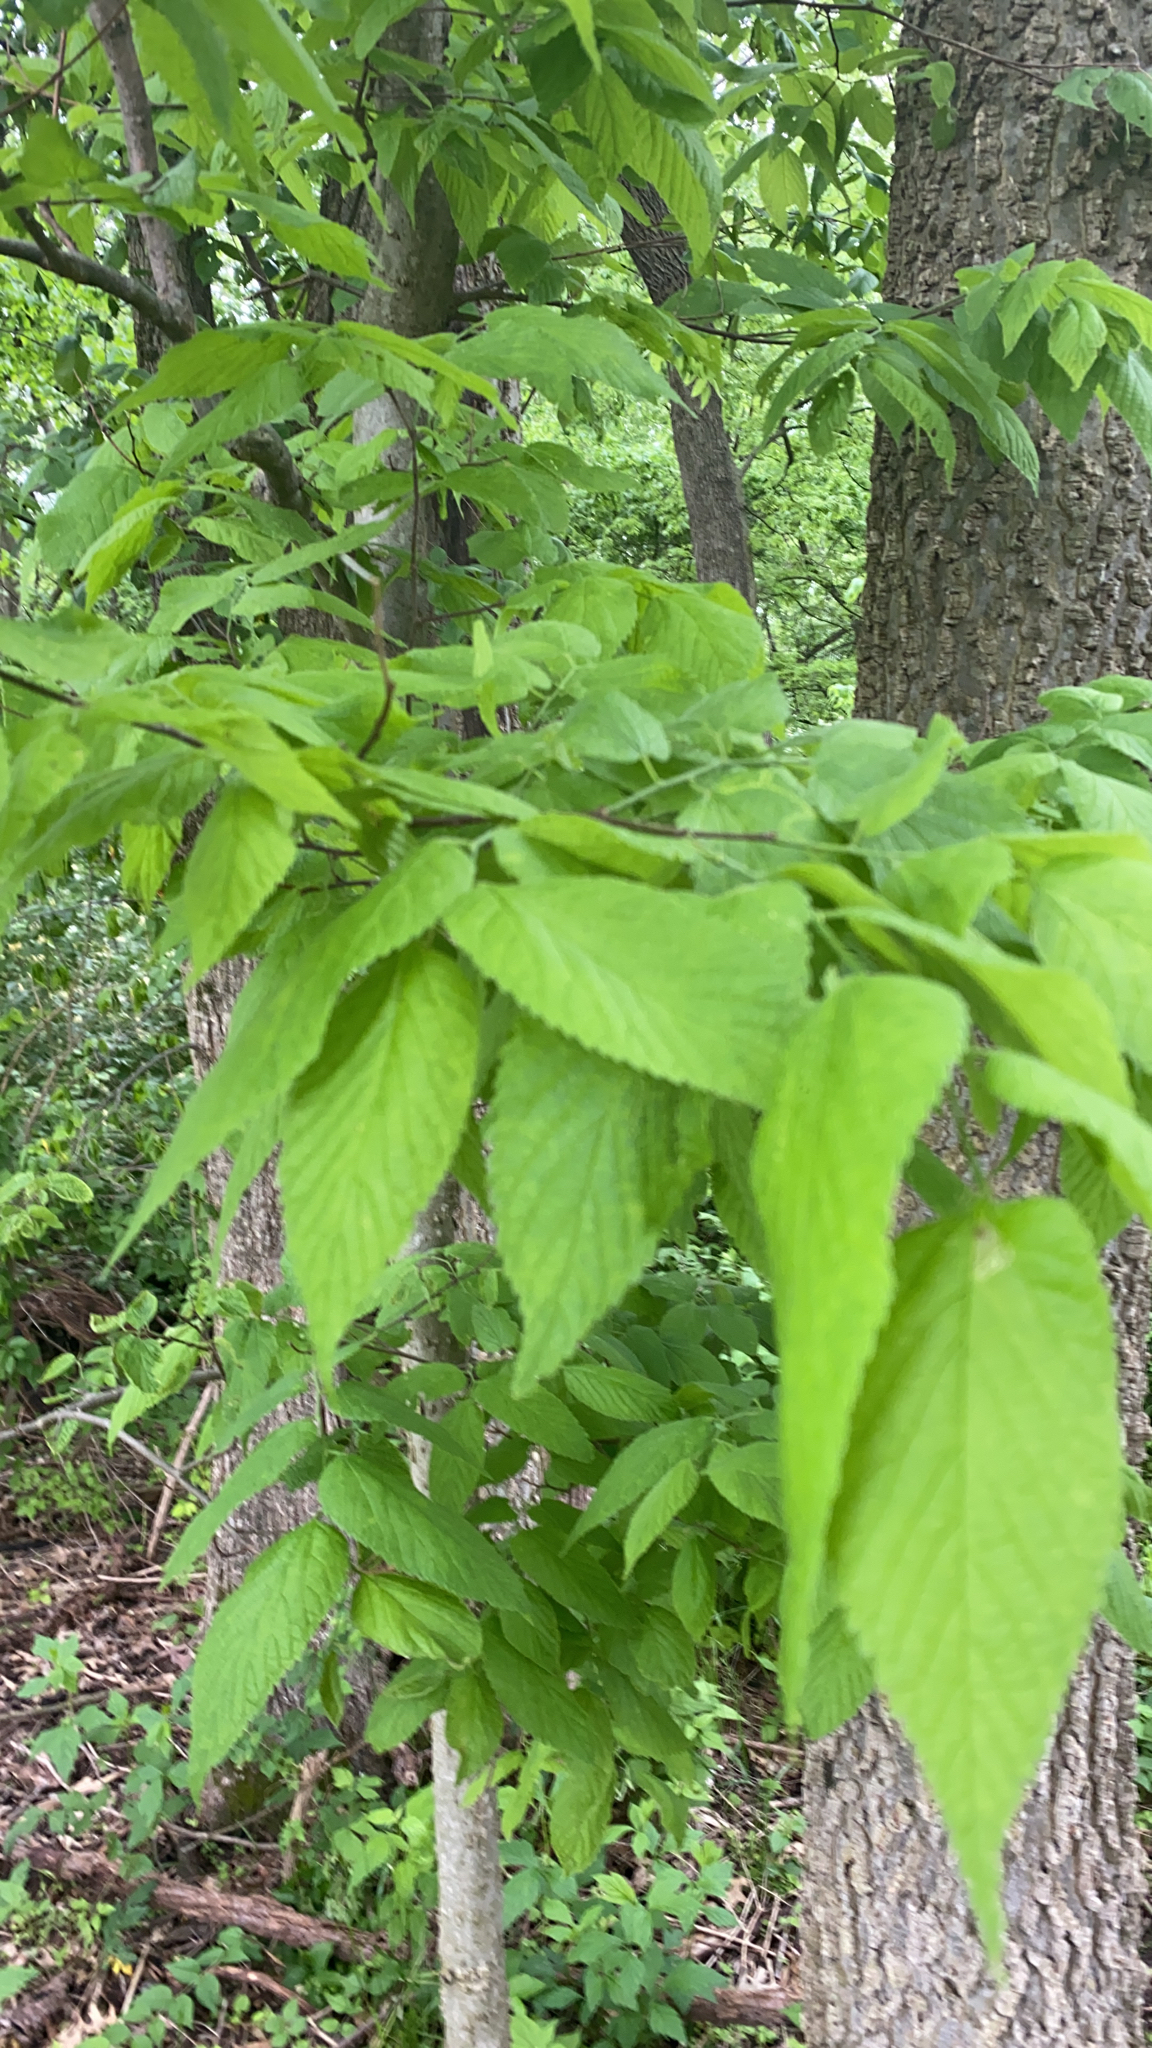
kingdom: Plantae
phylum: Tracheophyta
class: Magnoliopsida
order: Rosales
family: Cannabaceae
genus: Celtis
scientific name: Celtis occidentalis
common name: Common hackberry
